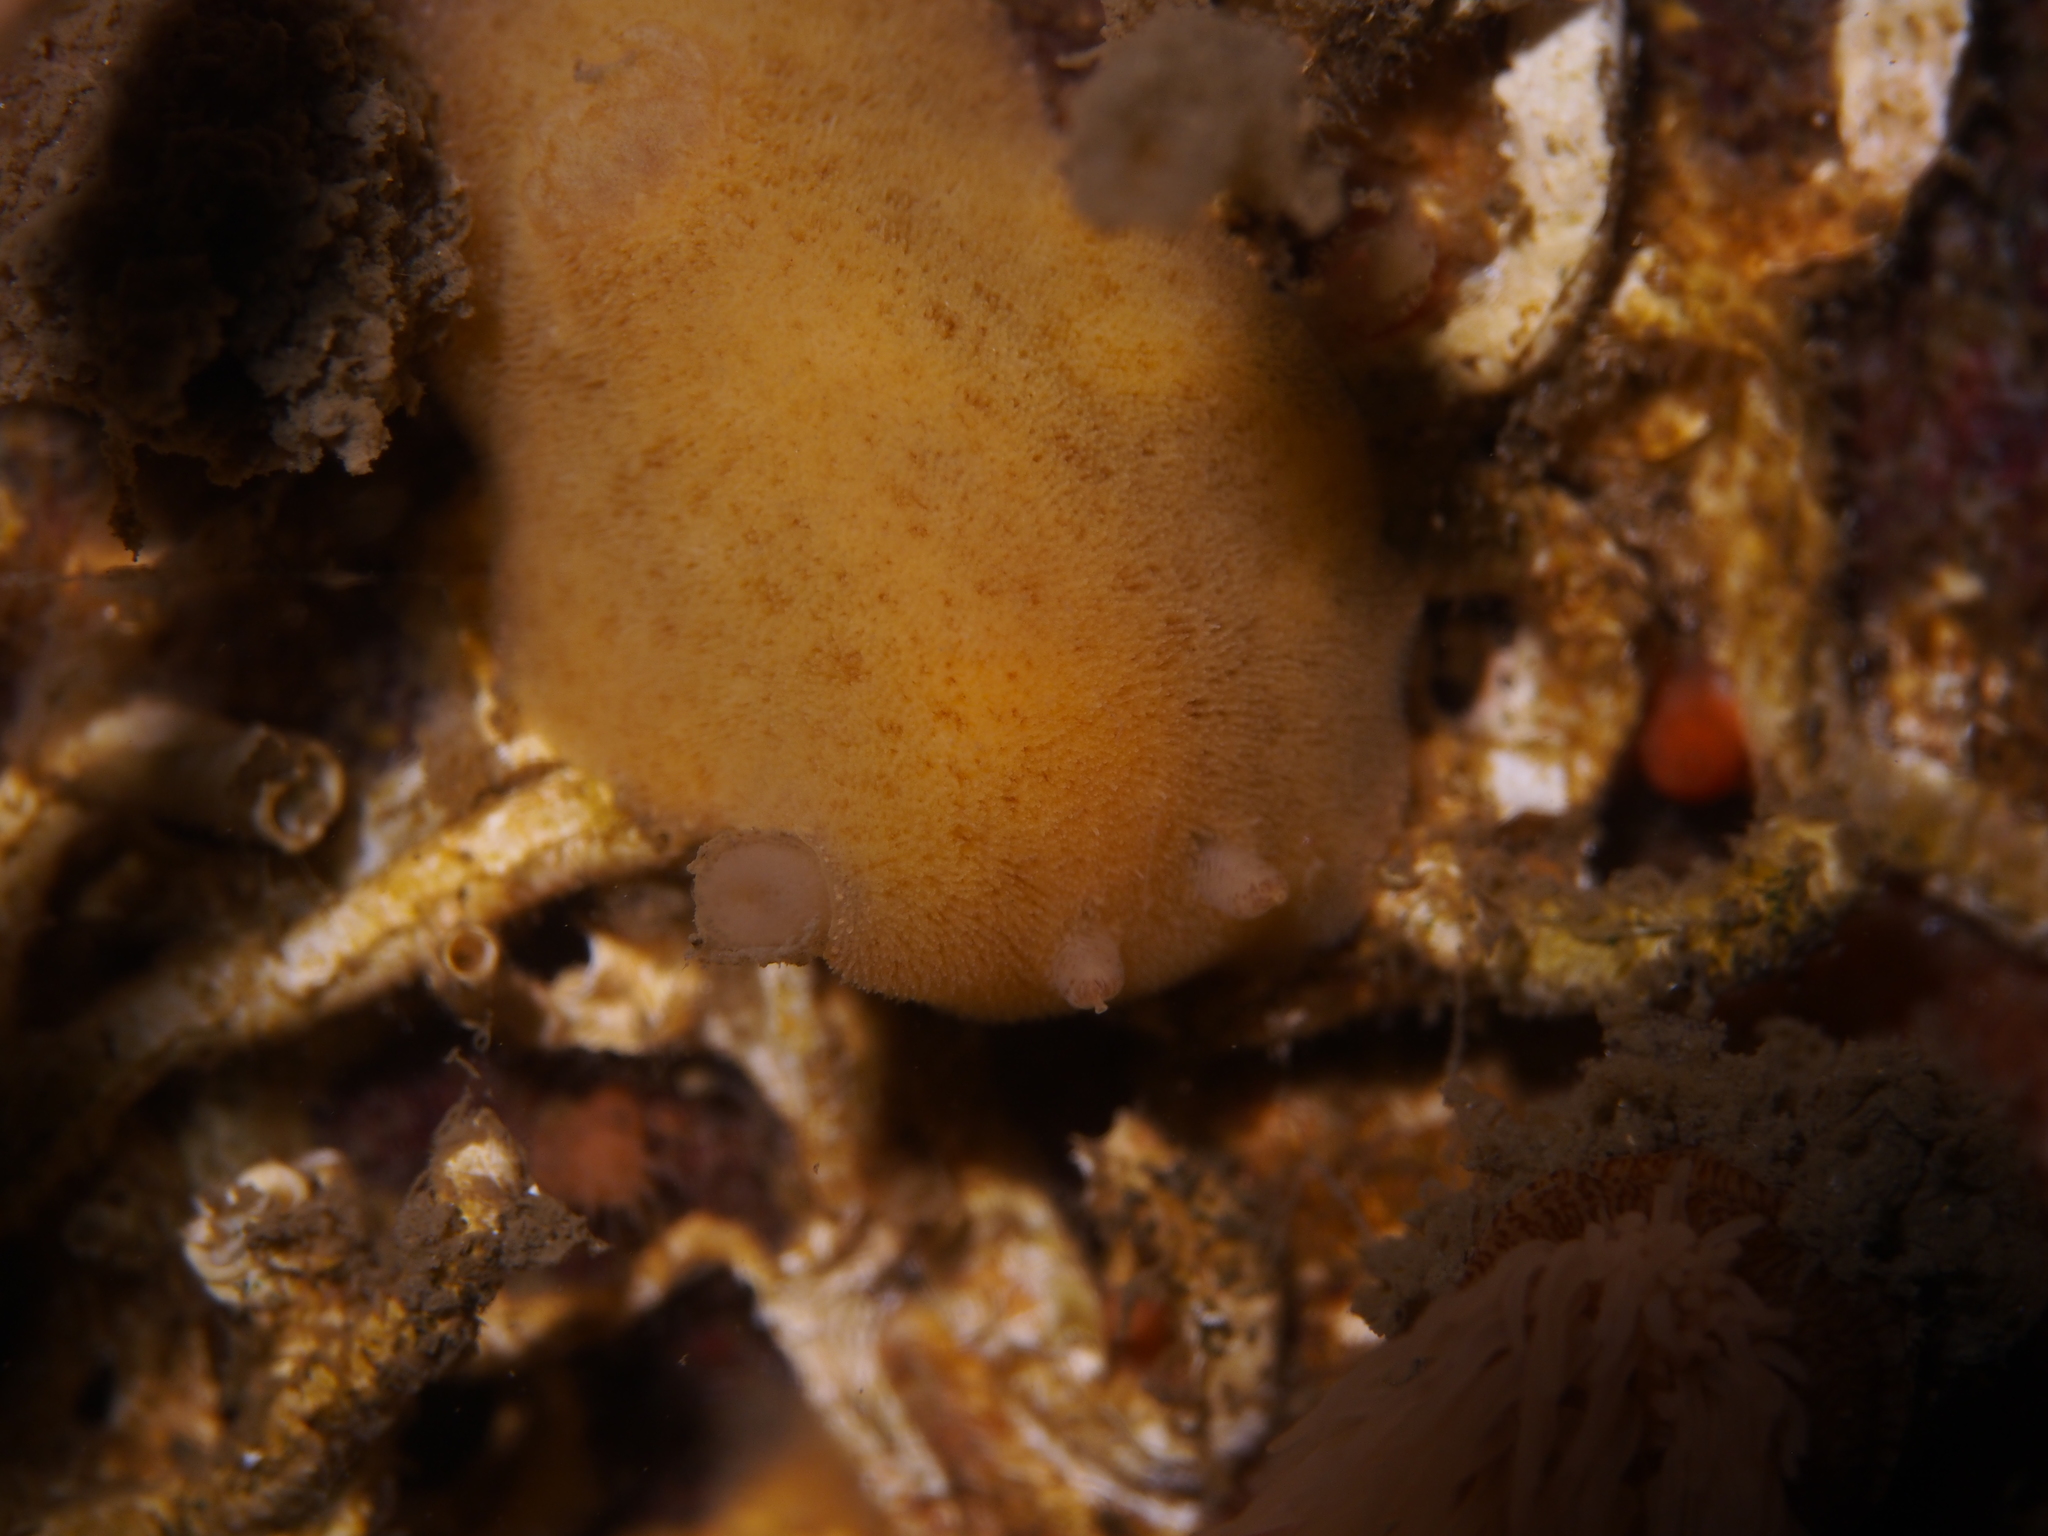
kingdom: Animalia
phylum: Mollusca
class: Gastropoda
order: Nudibranchia
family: Discodorididae
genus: Jorunna
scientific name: Jorunna tomentosa
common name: Grey sea slug
